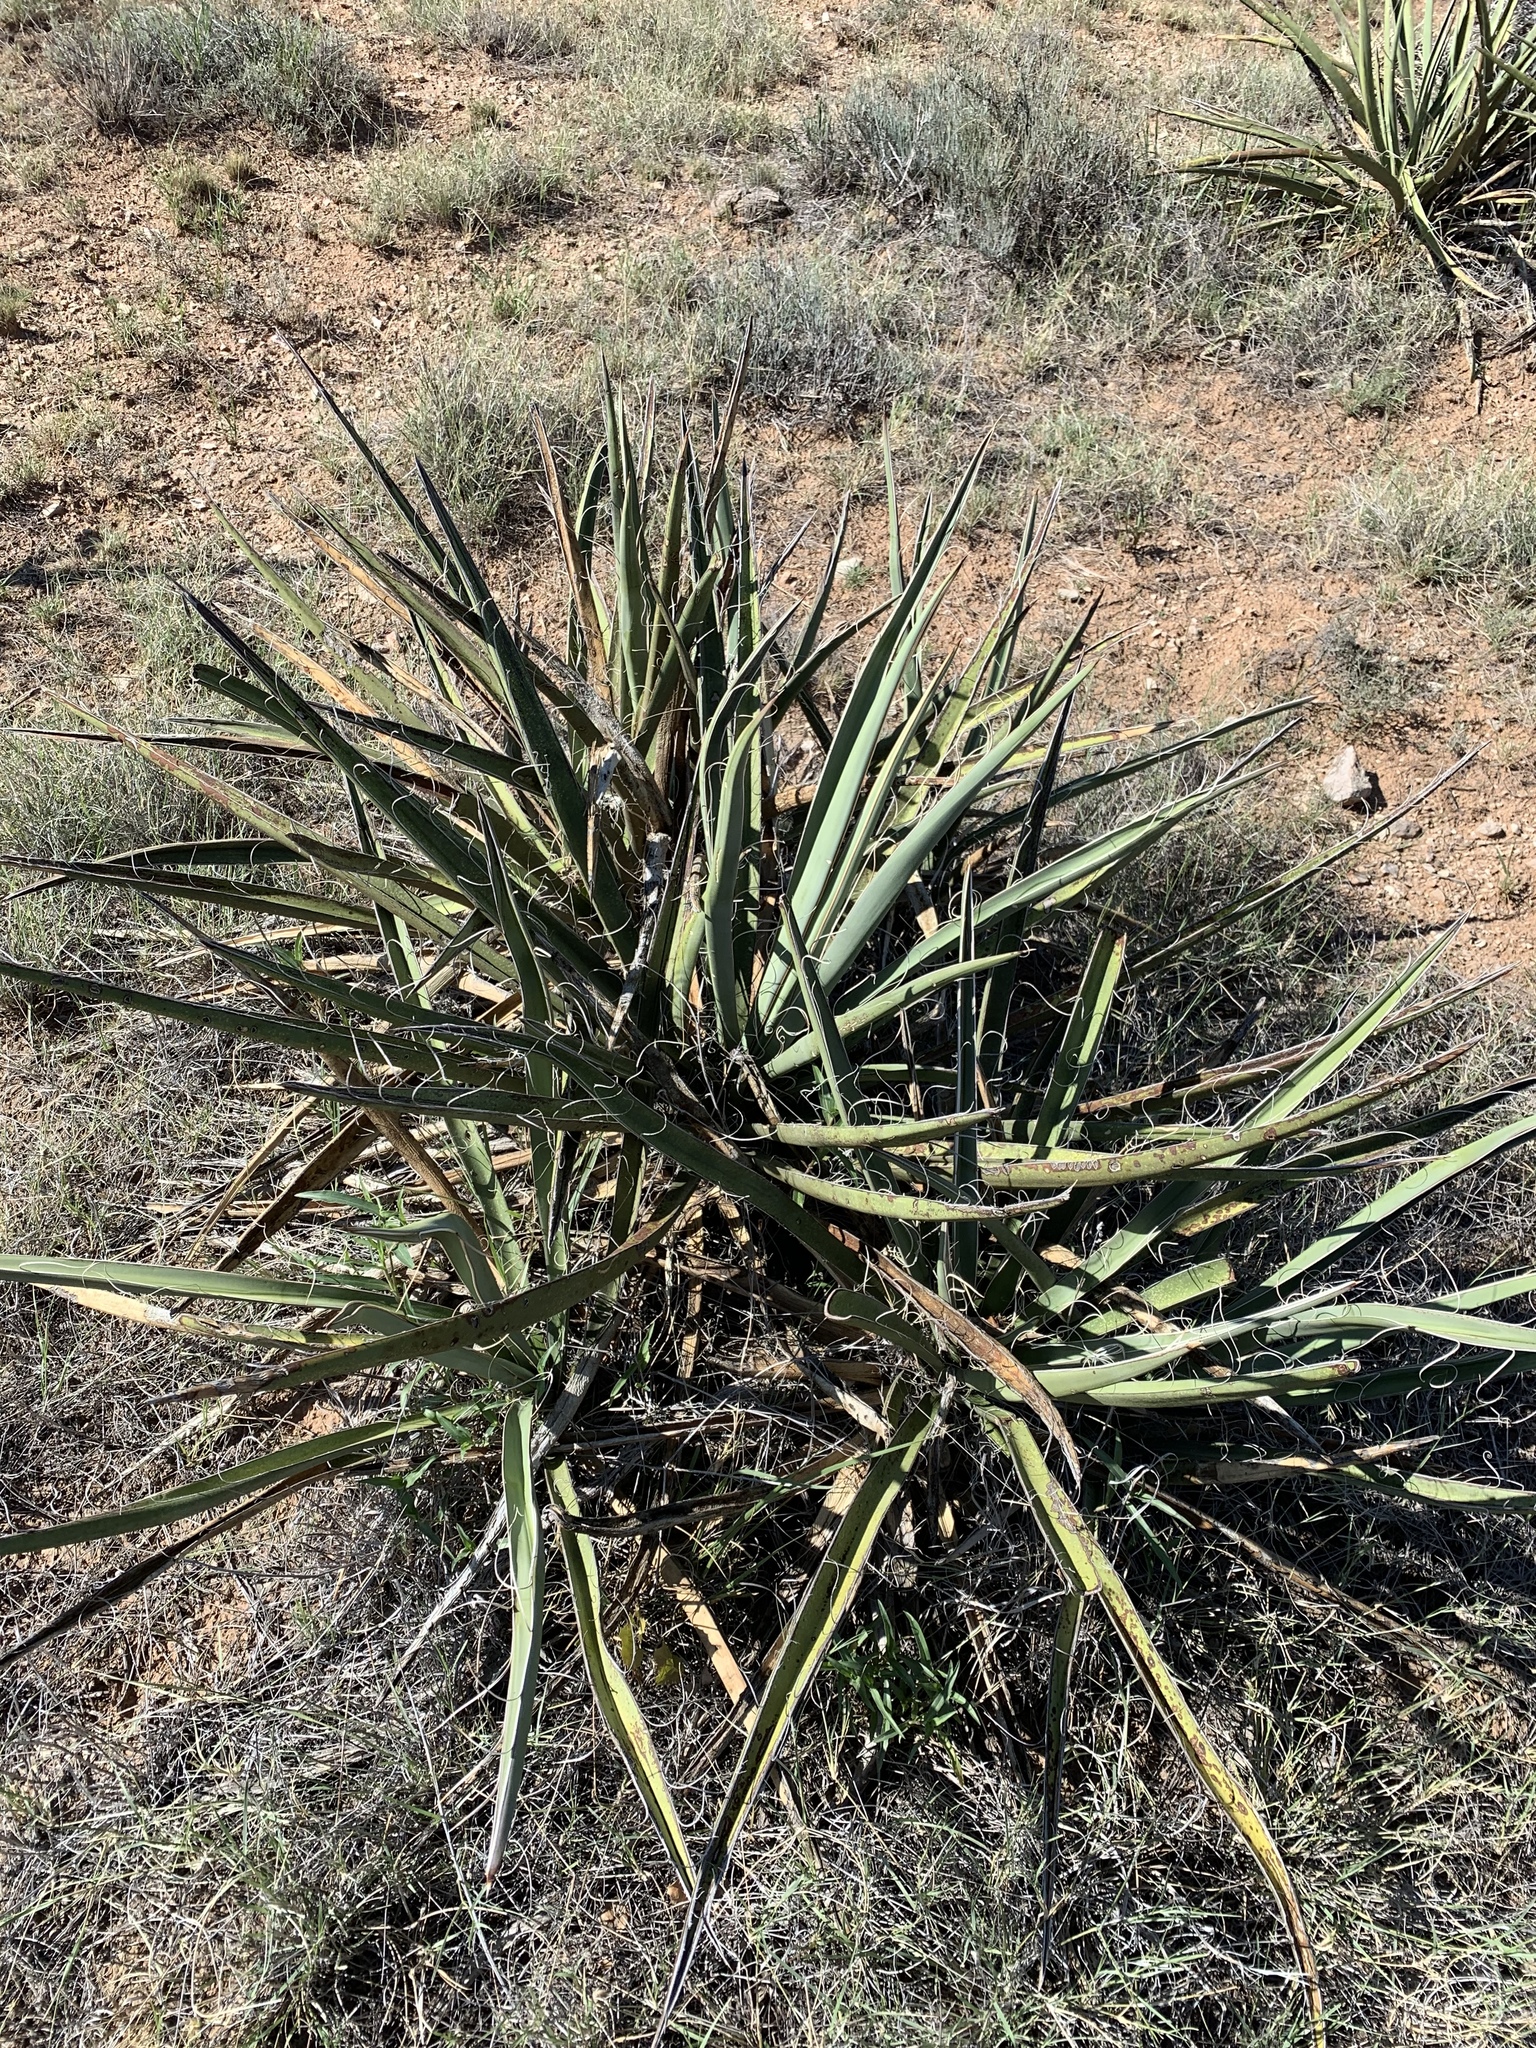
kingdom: Plantae
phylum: Tracheophyta
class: Liliopsida
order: Asparagales
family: Asparagaceae
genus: Yucca
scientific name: Yucca baccata
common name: Banana yucca
